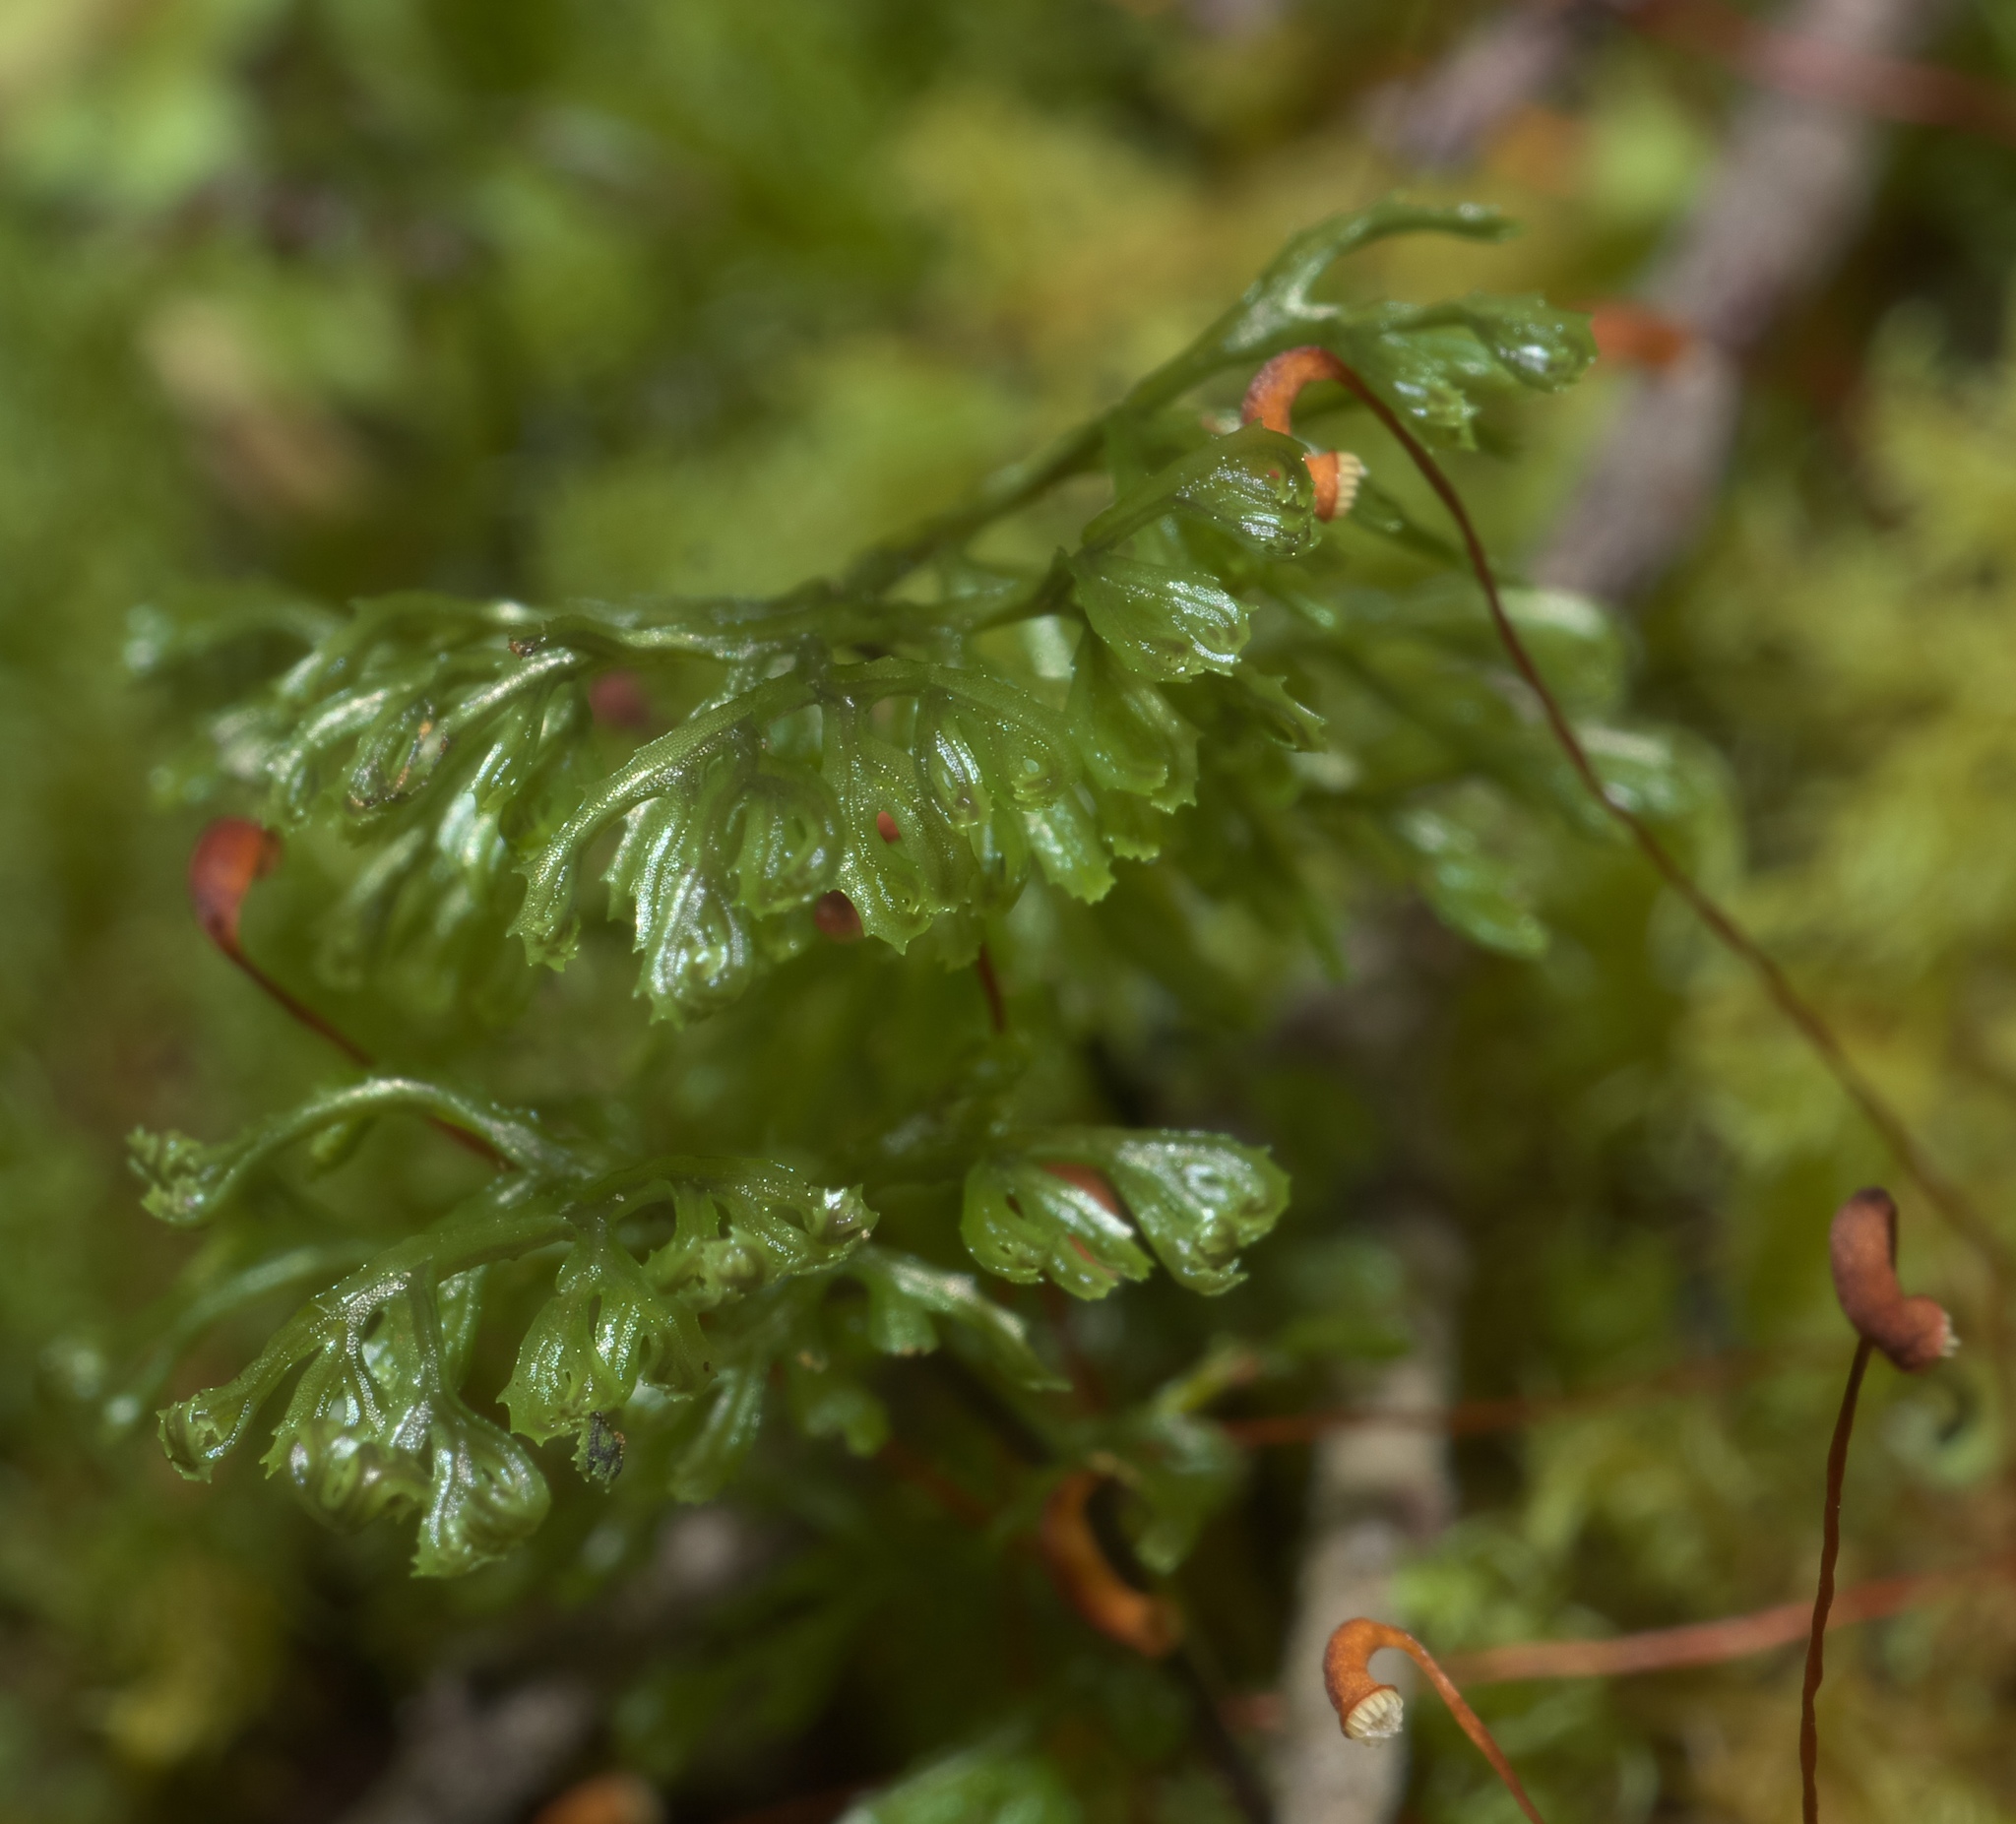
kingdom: Plantae
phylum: Tracheophyta
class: Polypodiopsida
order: Hymenophyllales
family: Hymenophyllaceae
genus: Hymenophyllum
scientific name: Hymenophyllum
